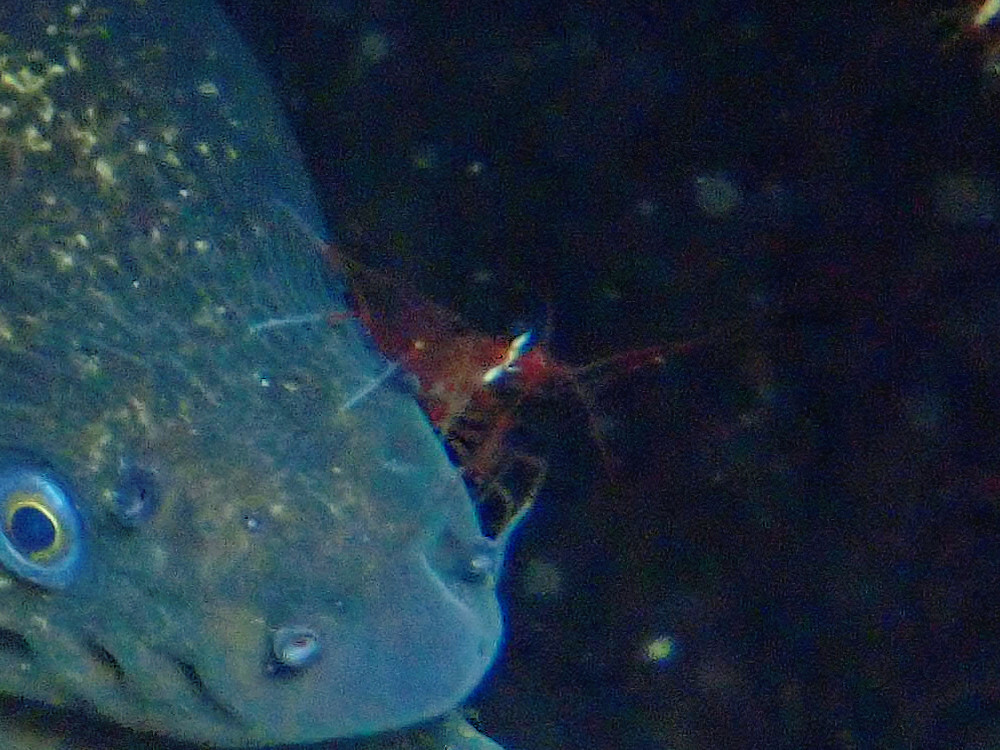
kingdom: Animalia
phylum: Arthropoda
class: Malacostraca
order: Decapoda
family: Lysmatidae
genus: Lysmata
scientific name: Lysmata californica
